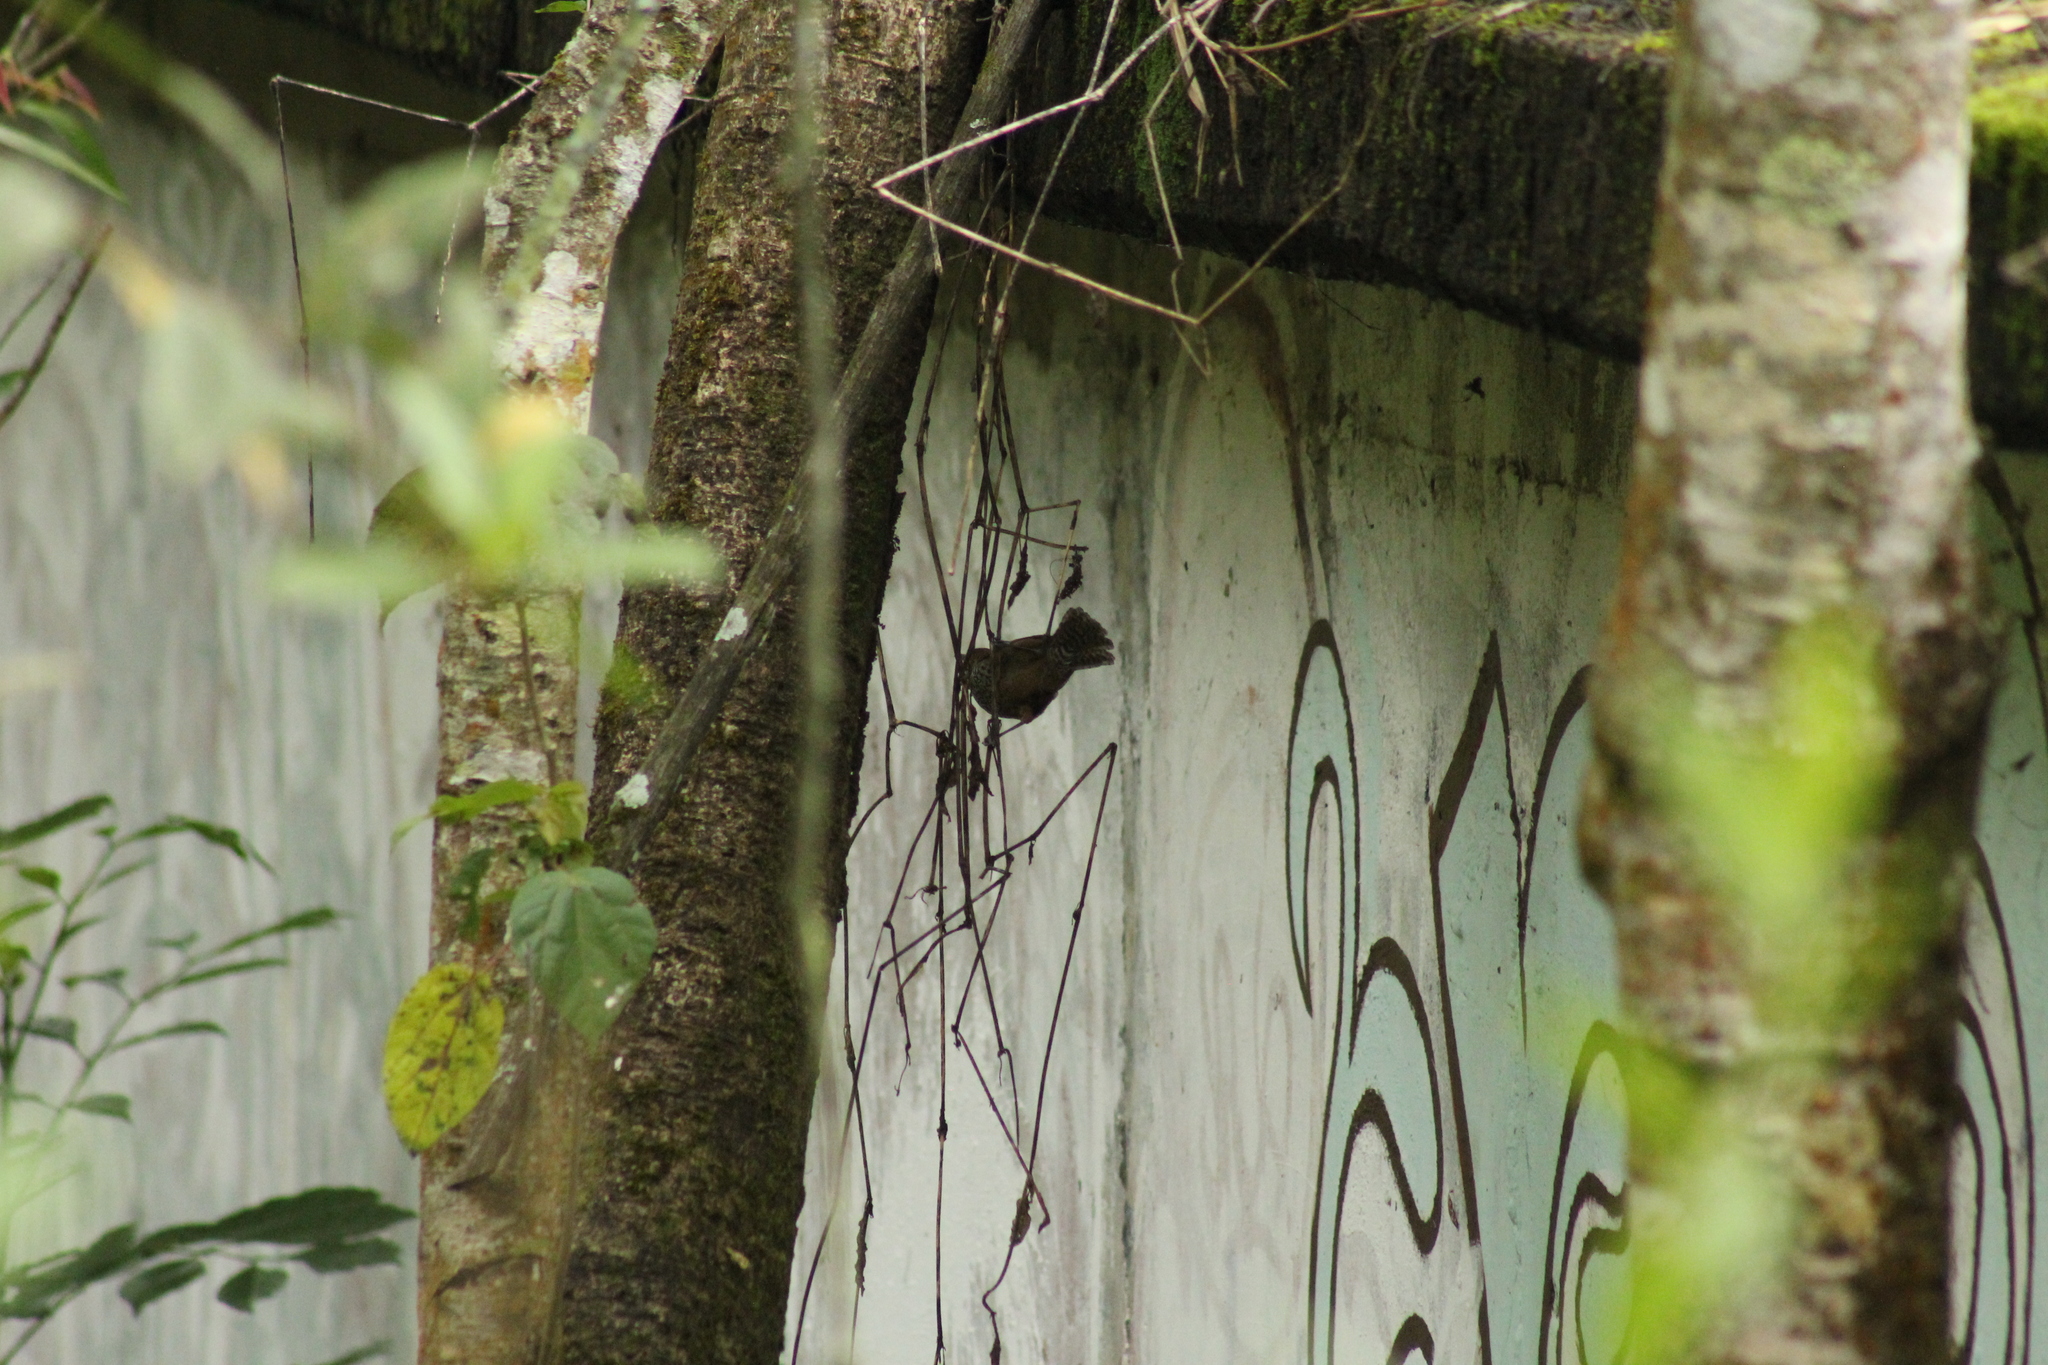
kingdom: Animalia
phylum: Chordata
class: Aves
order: Passeriformes
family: Troglodytidae
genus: Pheugopedius
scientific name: Pheugopedius maculipectus
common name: Spot-breasted wren
